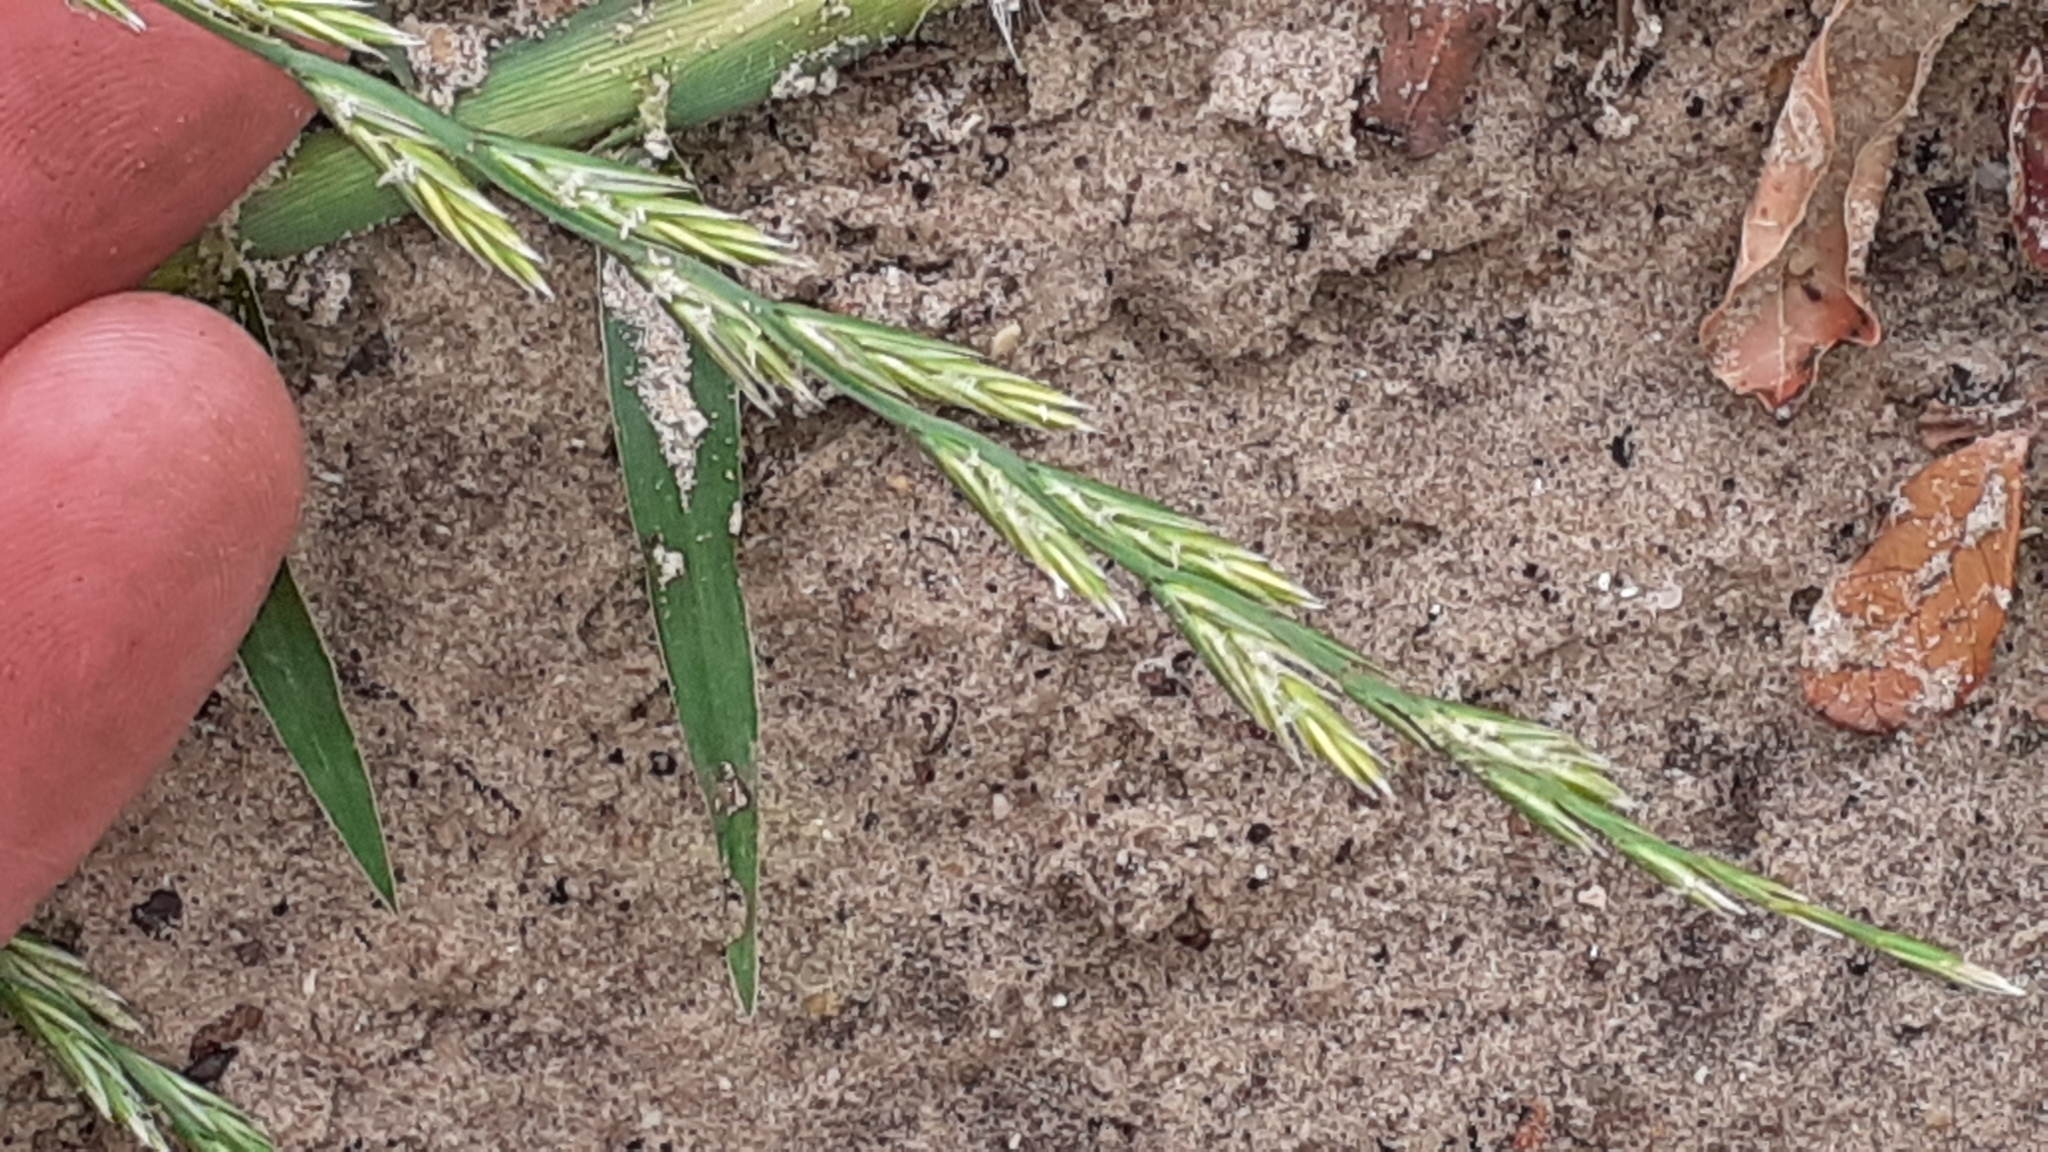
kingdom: Plantae
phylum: Tracheophyta
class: Liliopsida
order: Poales
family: Poaceae
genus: Lolium
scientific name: Lolium rigidum
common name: Wimmera ryegrass
